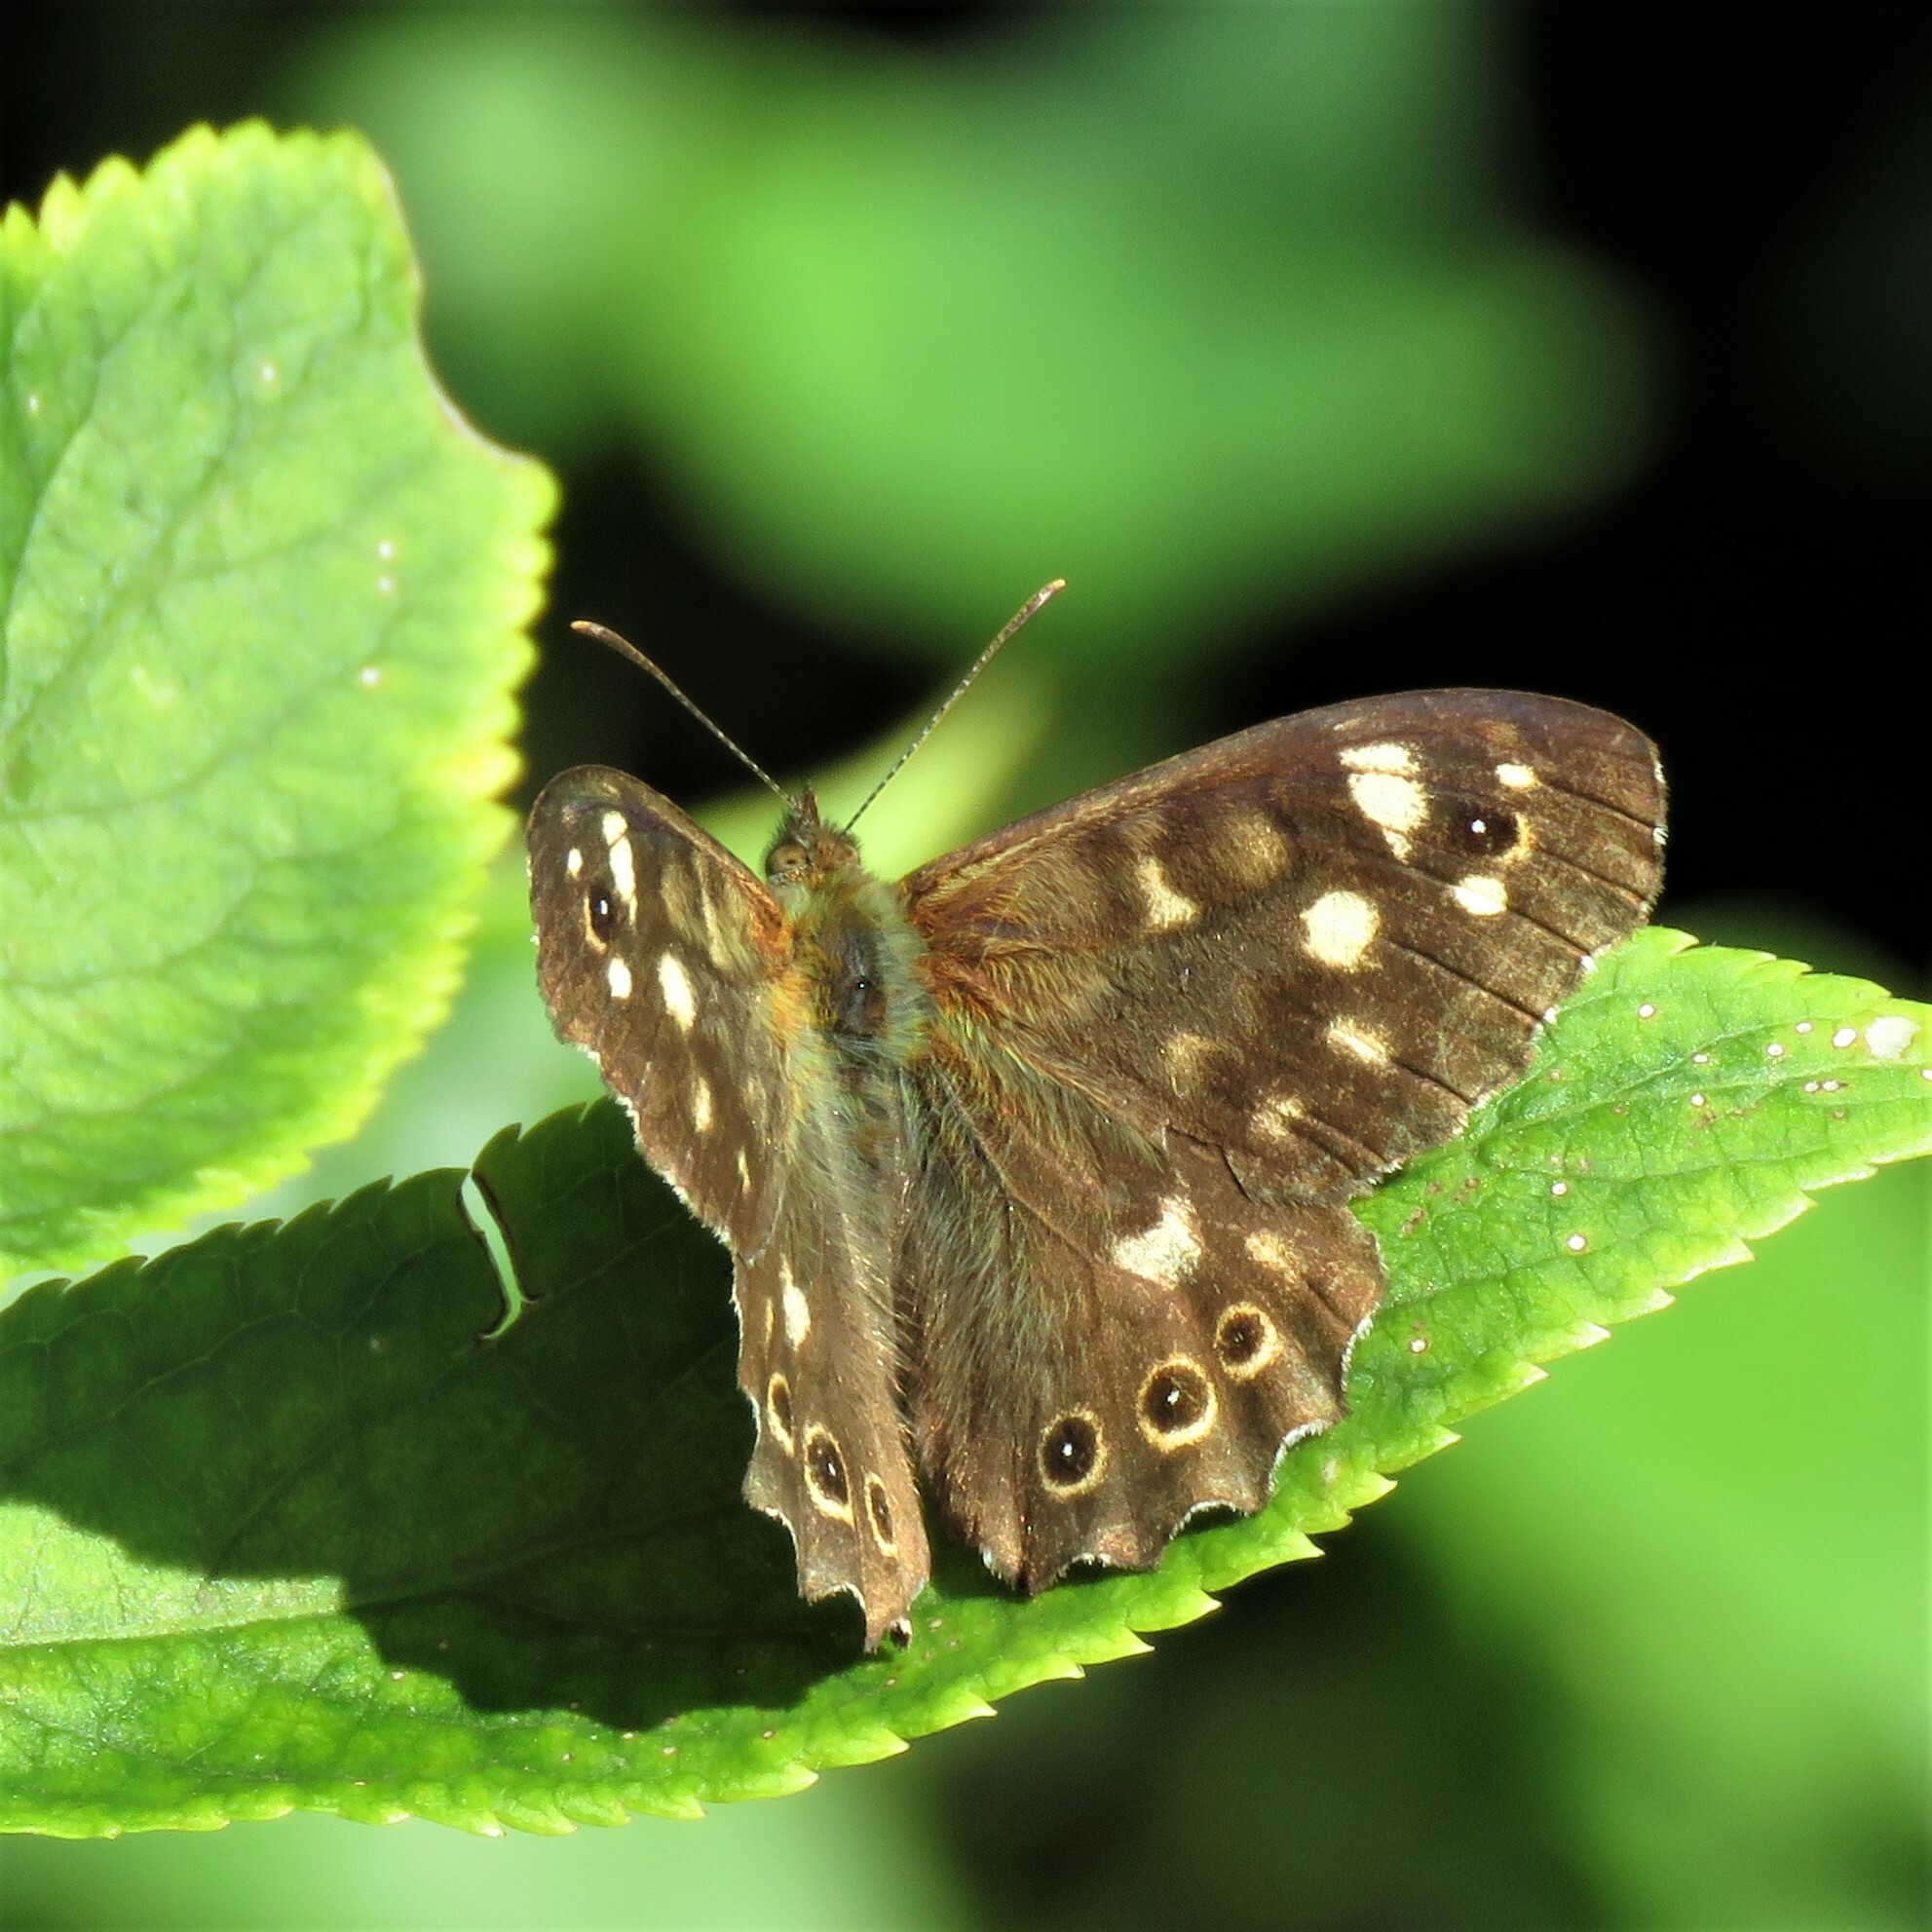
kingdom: Animalia
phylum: Arthropoda
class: Insecta
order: Lepidoptera
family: Nymphalidae
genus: Pararge
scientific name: Pararge aegeria
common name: Speckled wood
